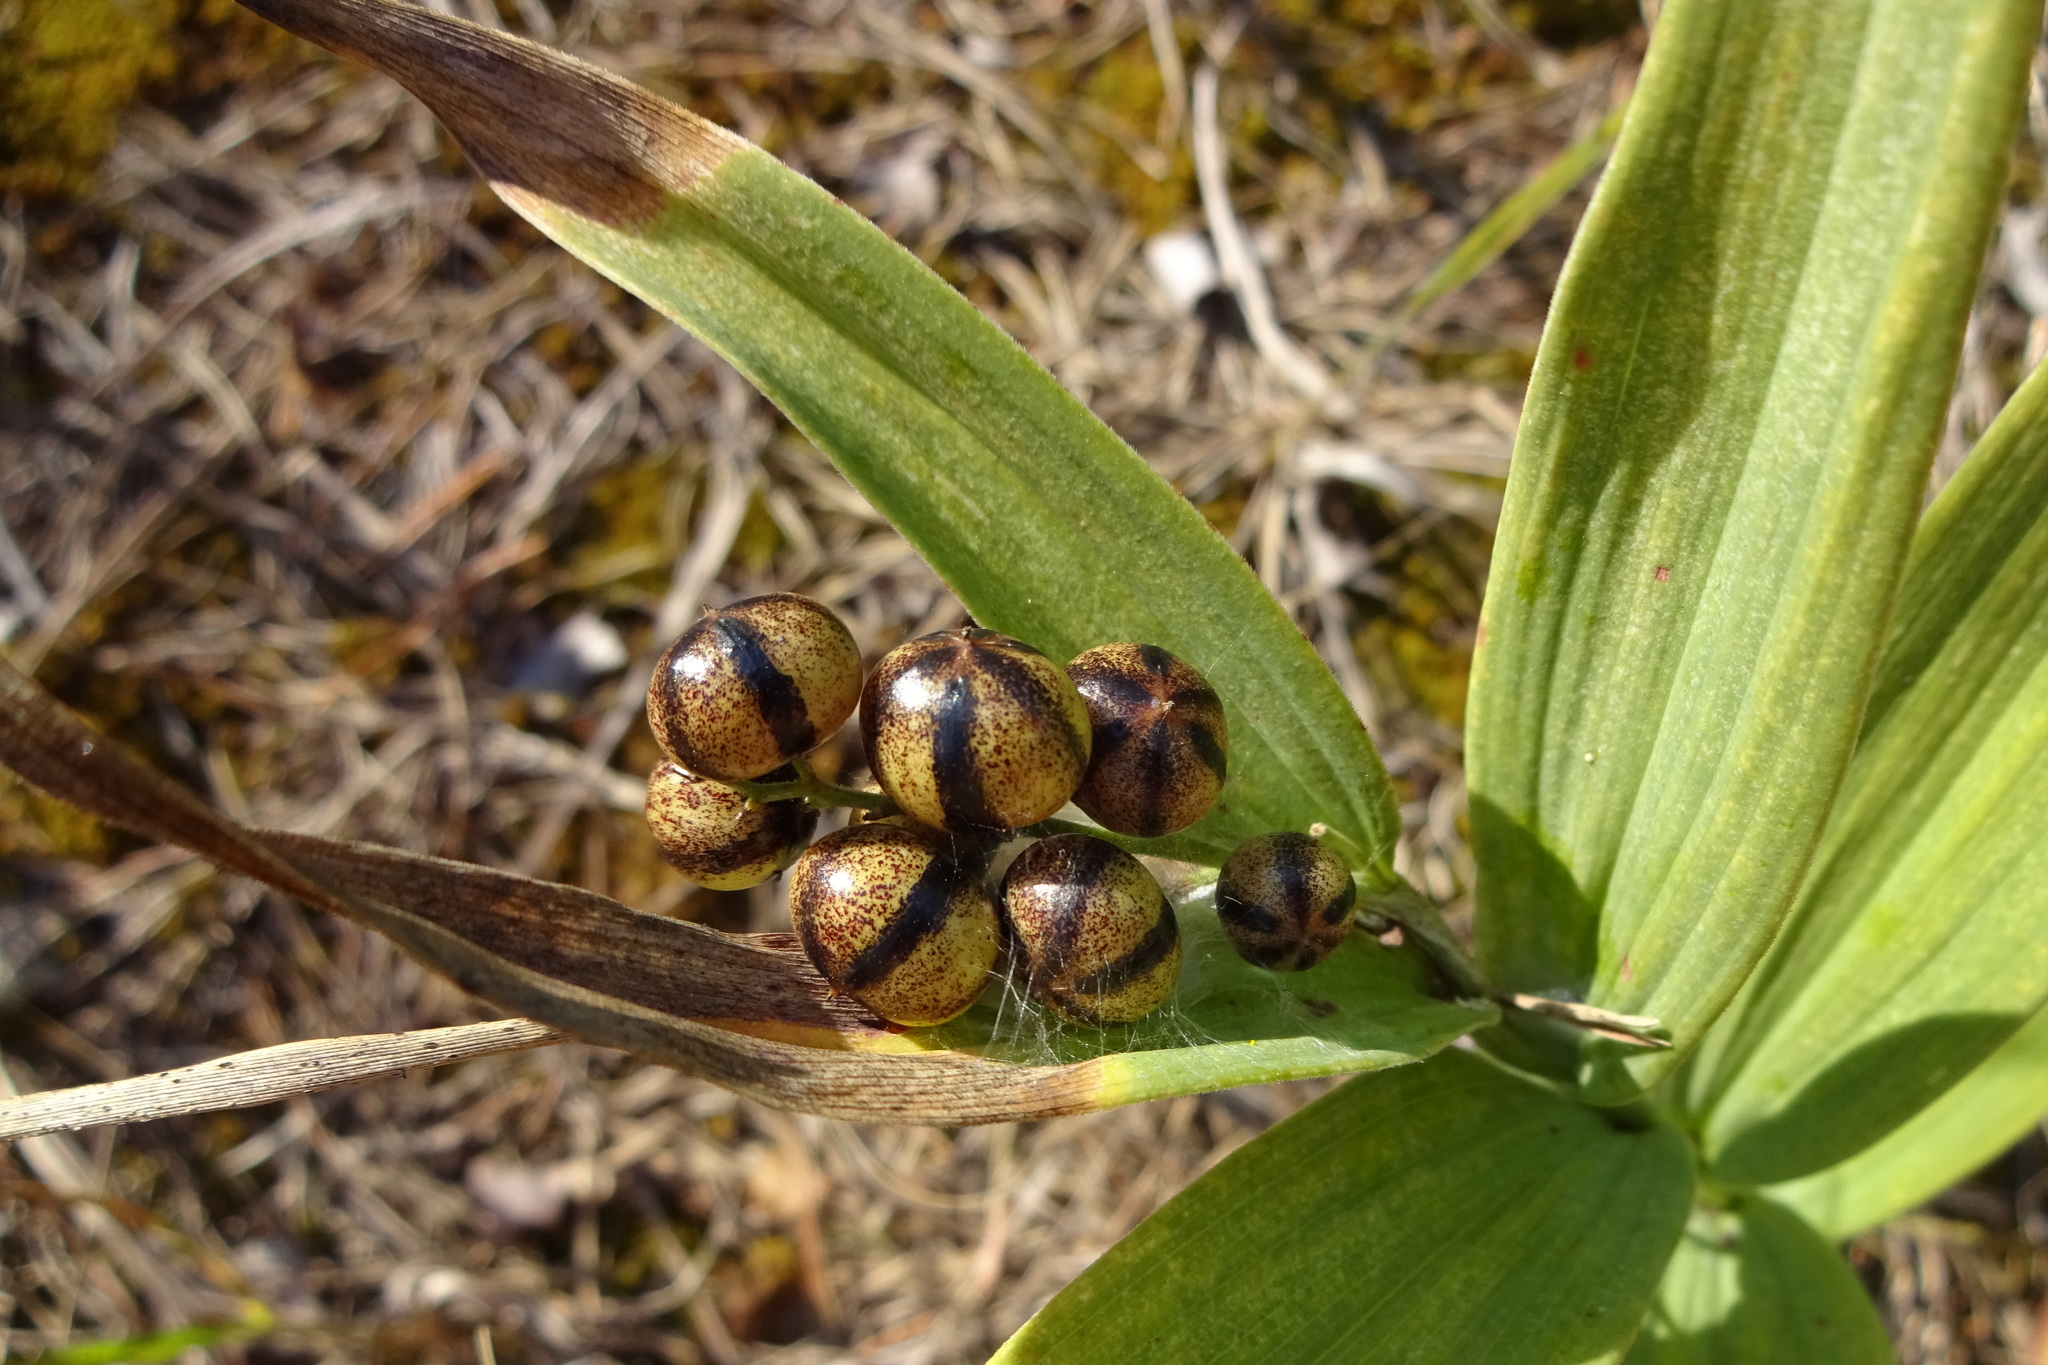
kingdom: Plantae
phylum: Tracheophyta
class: Liliopsida
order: Asparagales
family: Asparagaceae
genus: Maianthemum
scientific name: Maianthemum stellatum
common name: Little false solomon's seal
